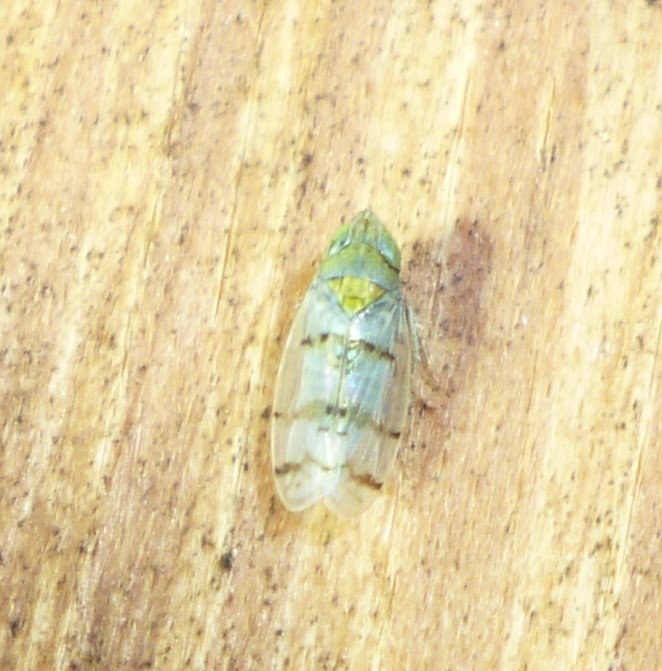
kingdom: Animalia
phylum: Arthropoda
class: Insecta
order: Hemiptera
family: Cicadellidae
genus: Japananus
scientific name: Japananus hyalinus
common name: The japanese maple leafhopper
